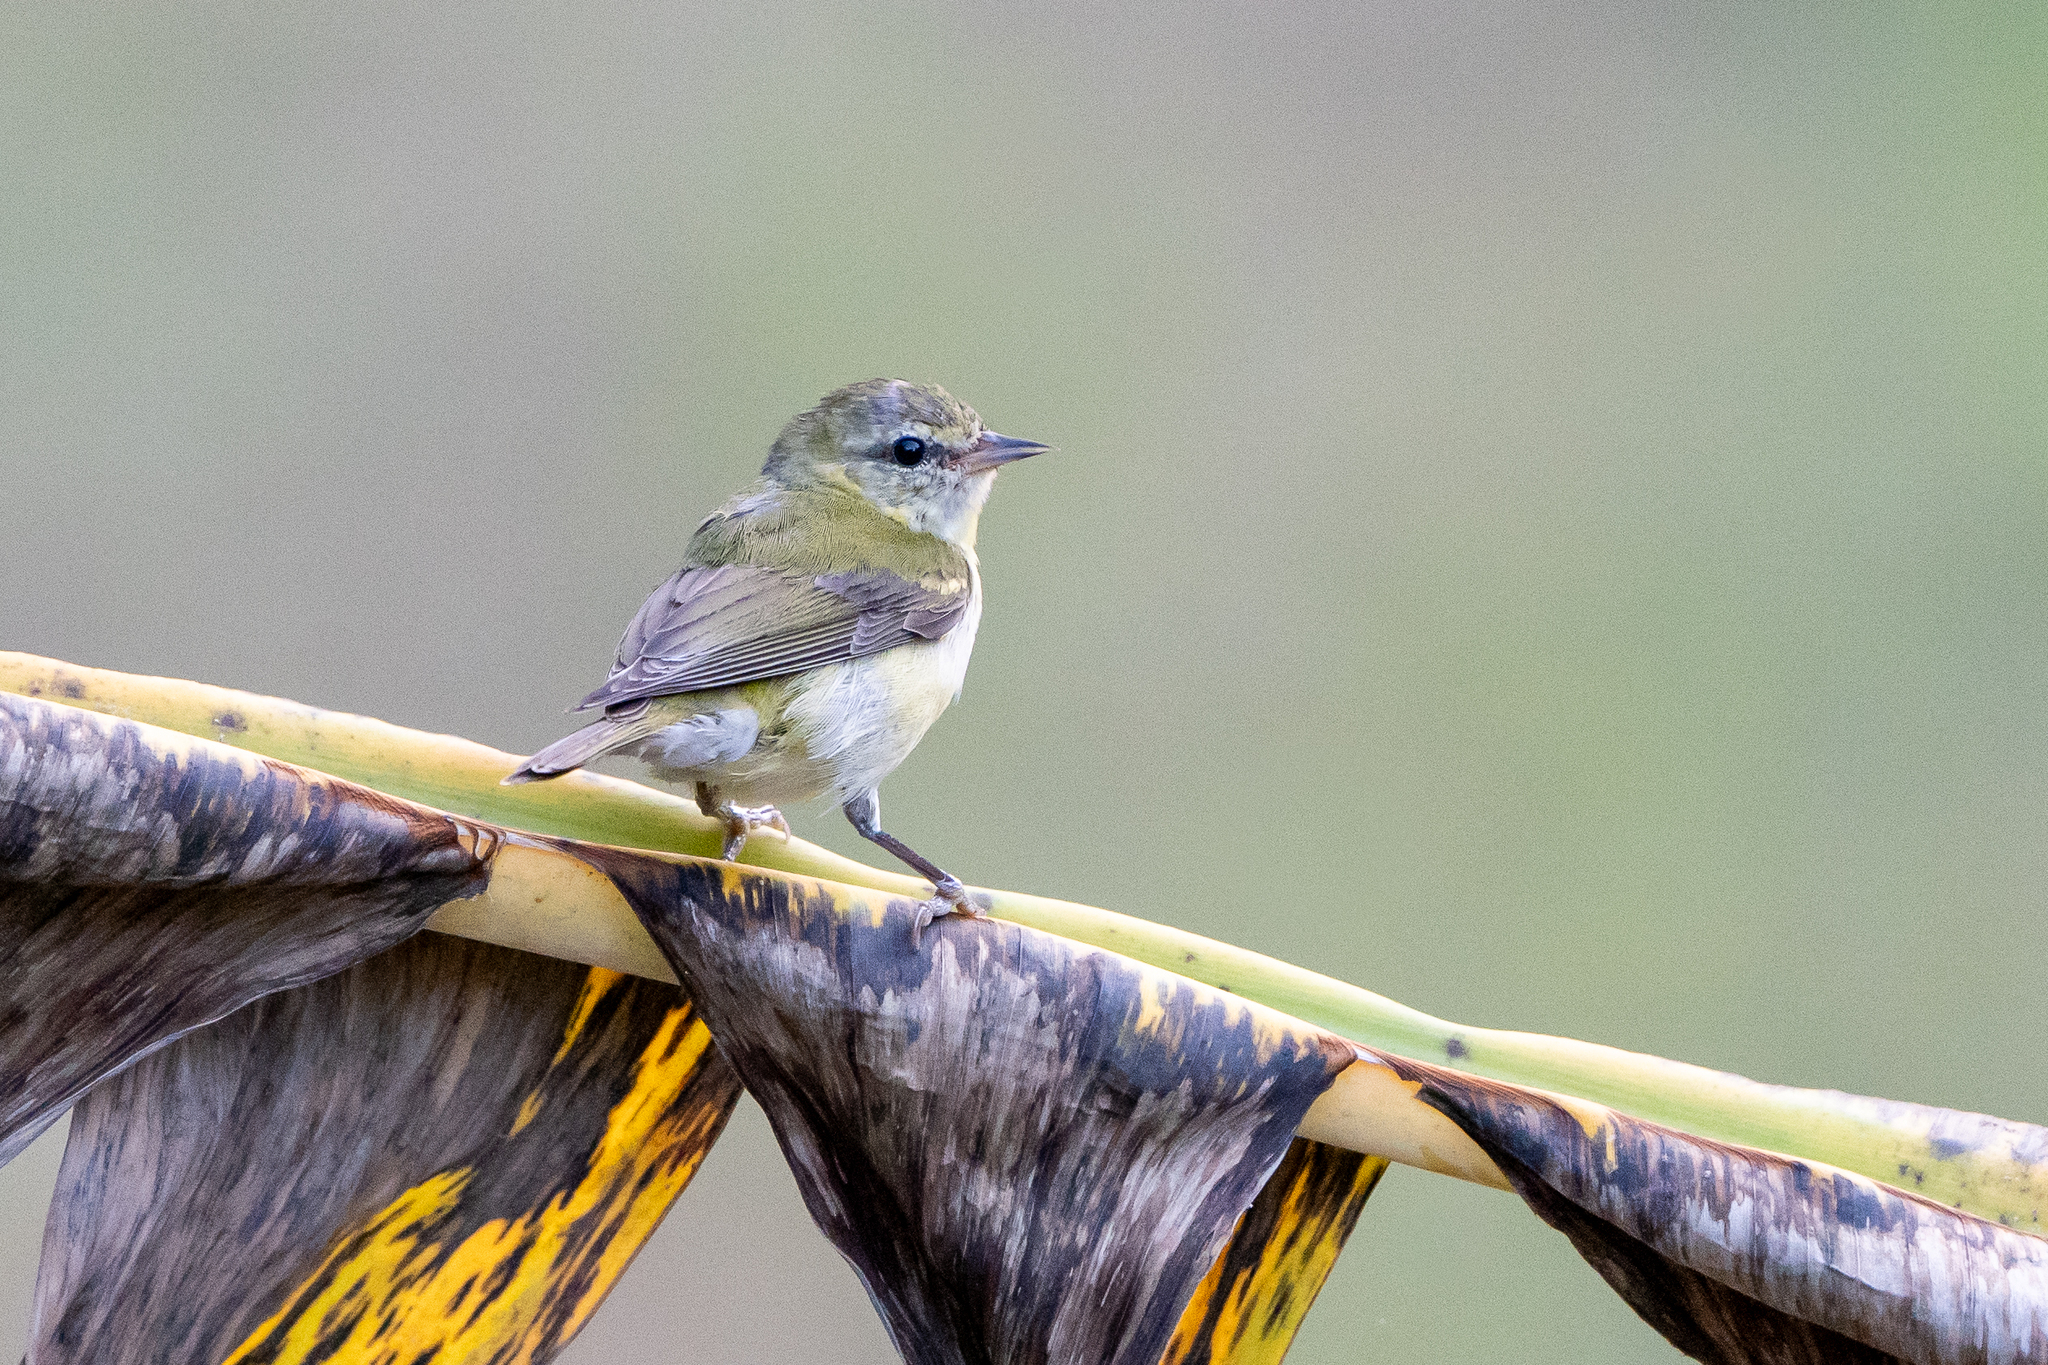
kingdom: Animalia
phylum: Chordata
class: Aves
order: Passeriformes
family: Parulidae
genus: Leiothlypis
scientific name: Leiothlypis peregrina
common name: Tennessee warbler
